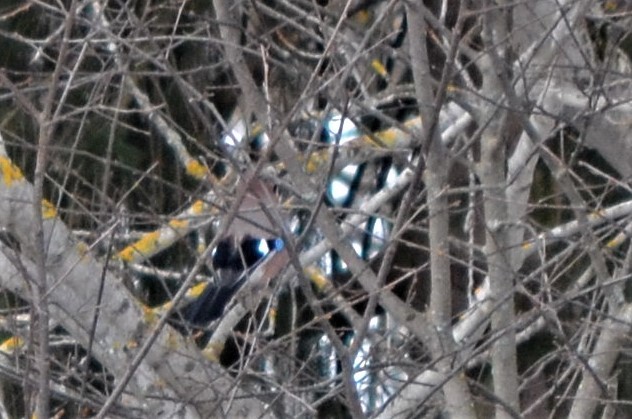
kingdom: Animalia
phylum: Chordata
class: Aves
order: Passeriformes
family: Corvidae
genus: Garrulus
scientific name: Garrulus glandarius
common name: Eurasian jay
